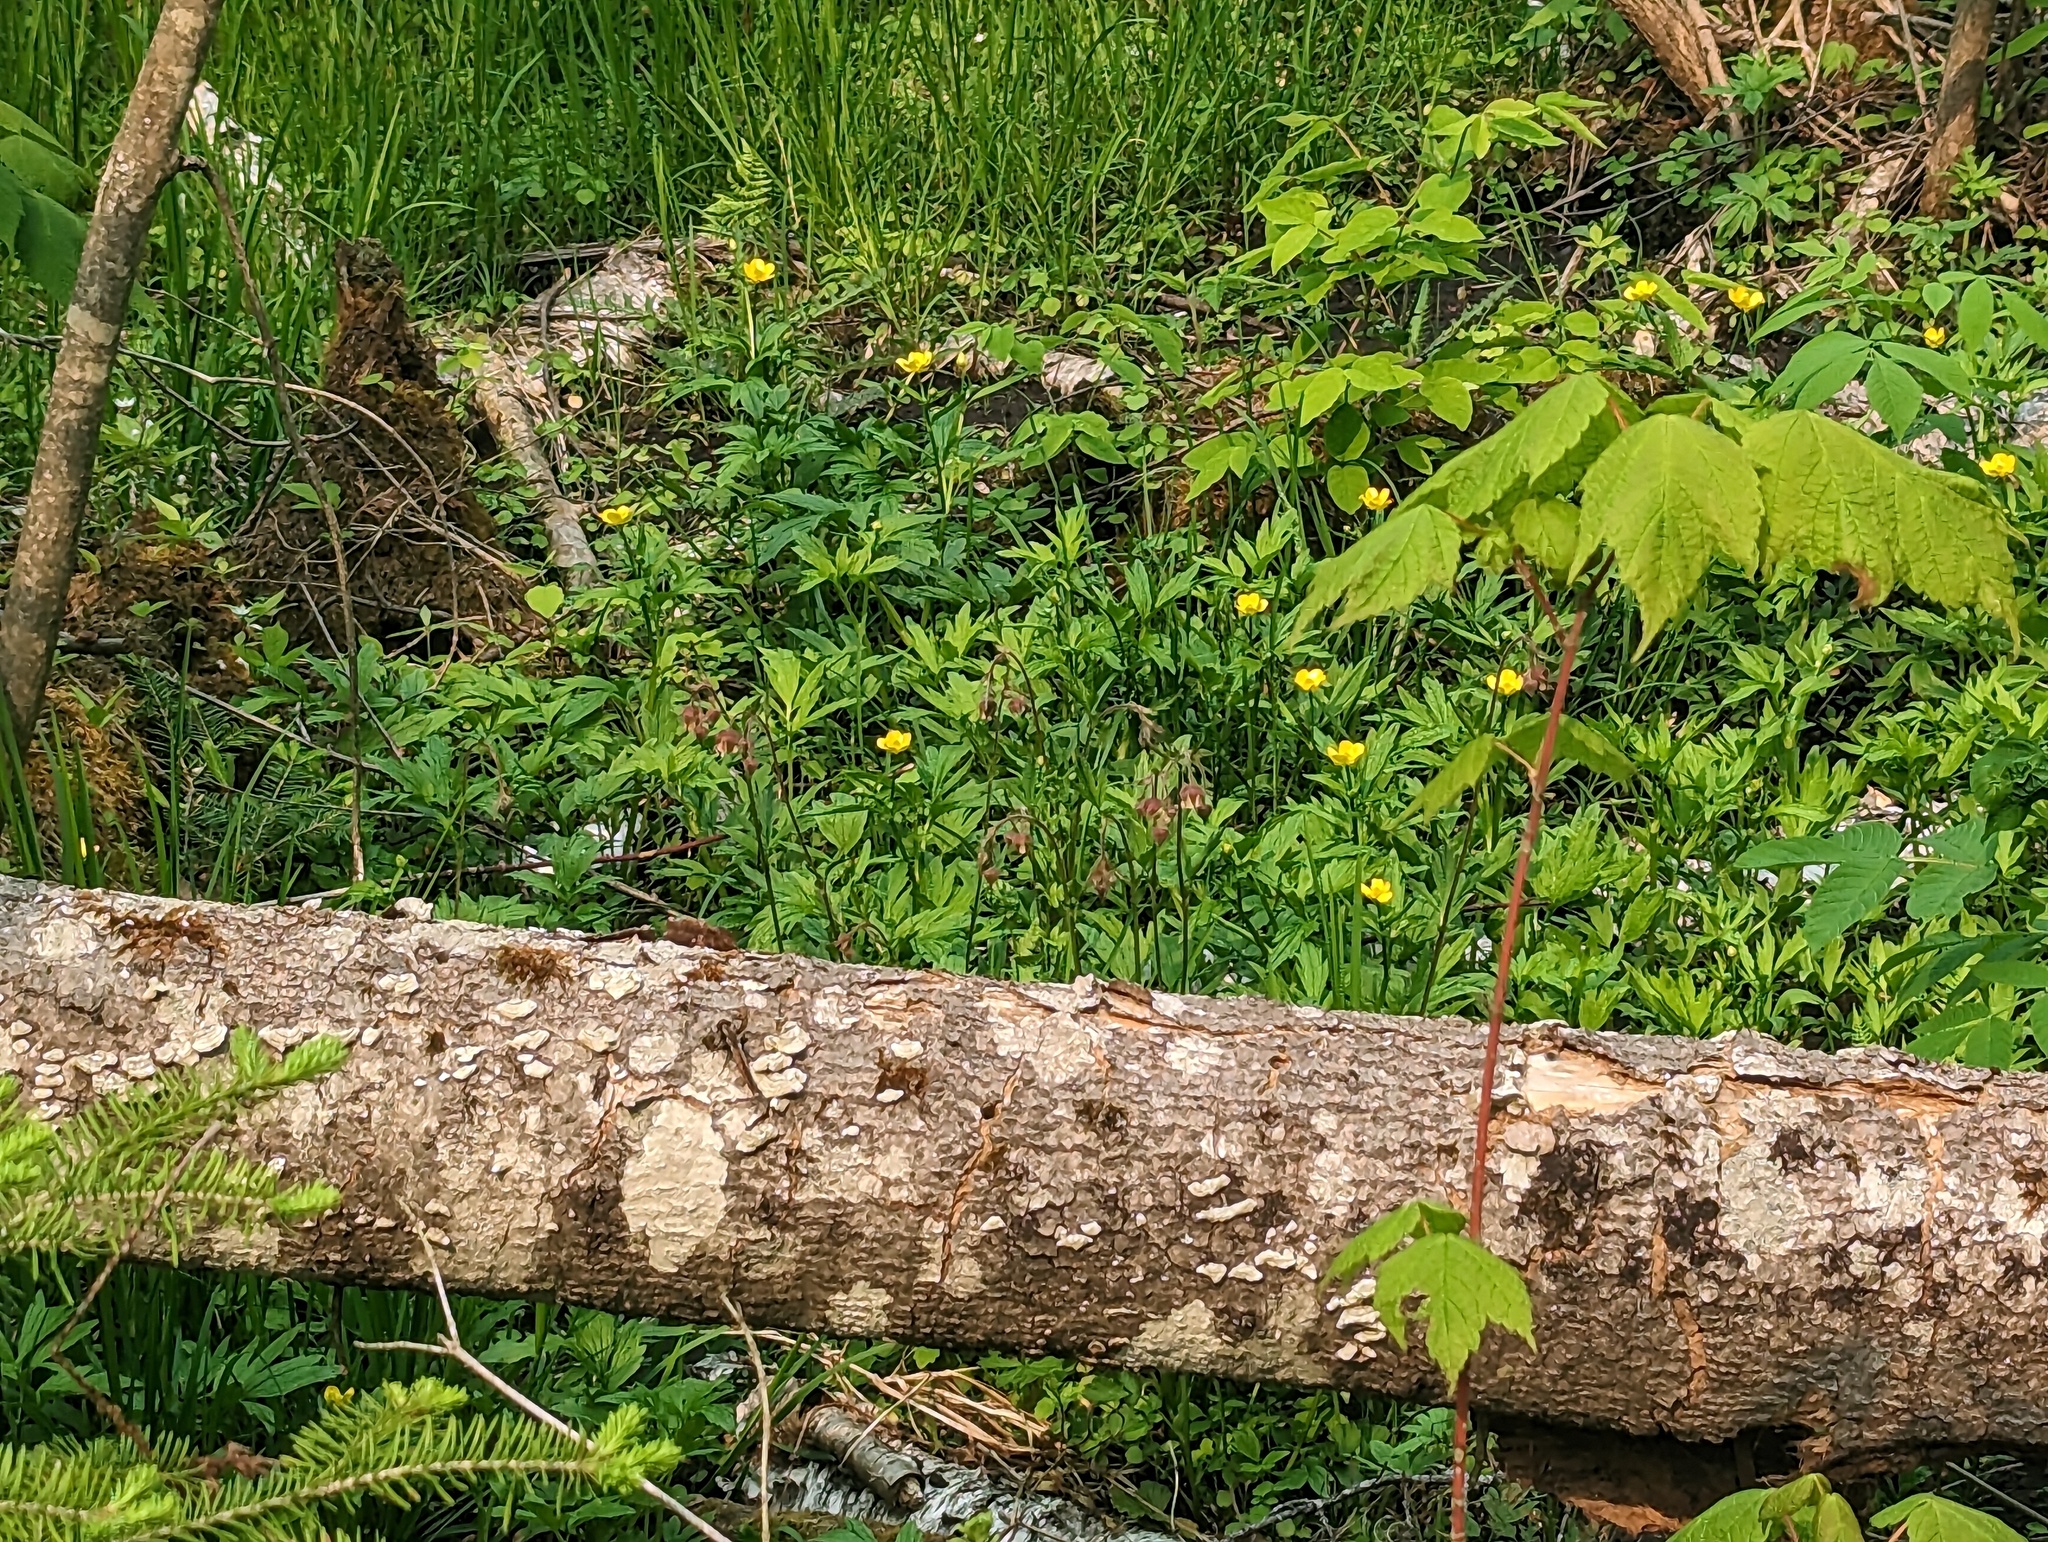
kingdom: Plantae
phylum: Tracheophyta
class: Magnoliopsida
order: Rosales
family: Rosaceae
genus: Geum
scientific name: Geum rivale
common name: Water avens
